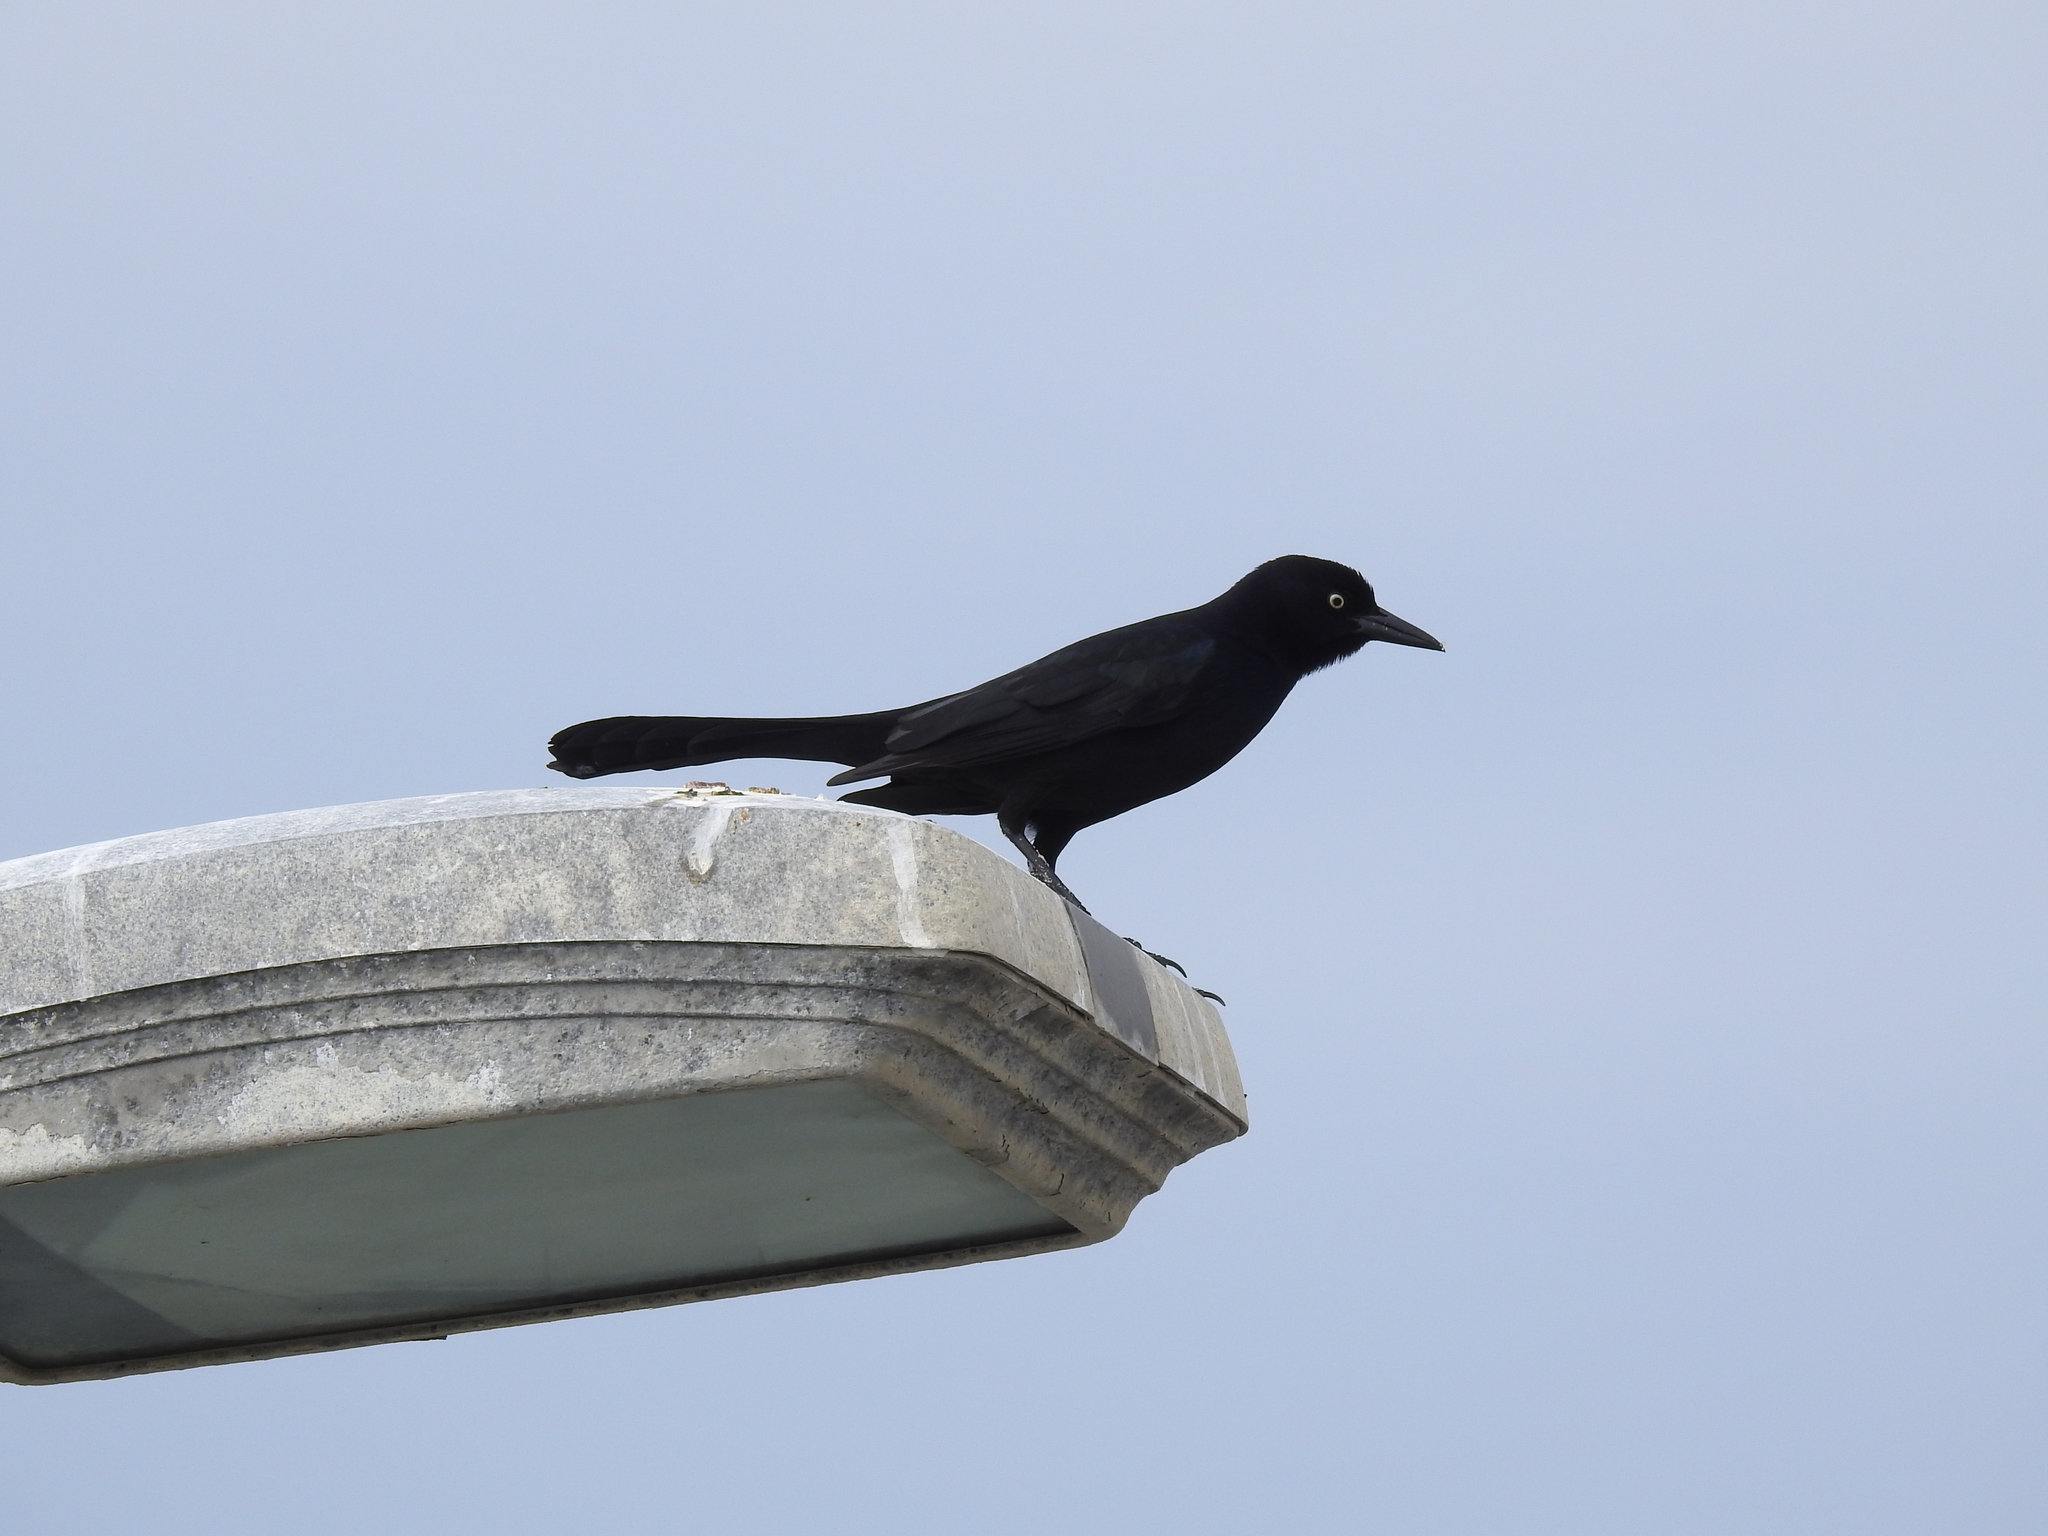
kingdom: Animalia
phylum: Chordata
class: Aves
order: Passeriformes
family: Icteridae
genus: Quiscalus
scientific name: Quiscalus major
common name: Boat-tailed grackle
